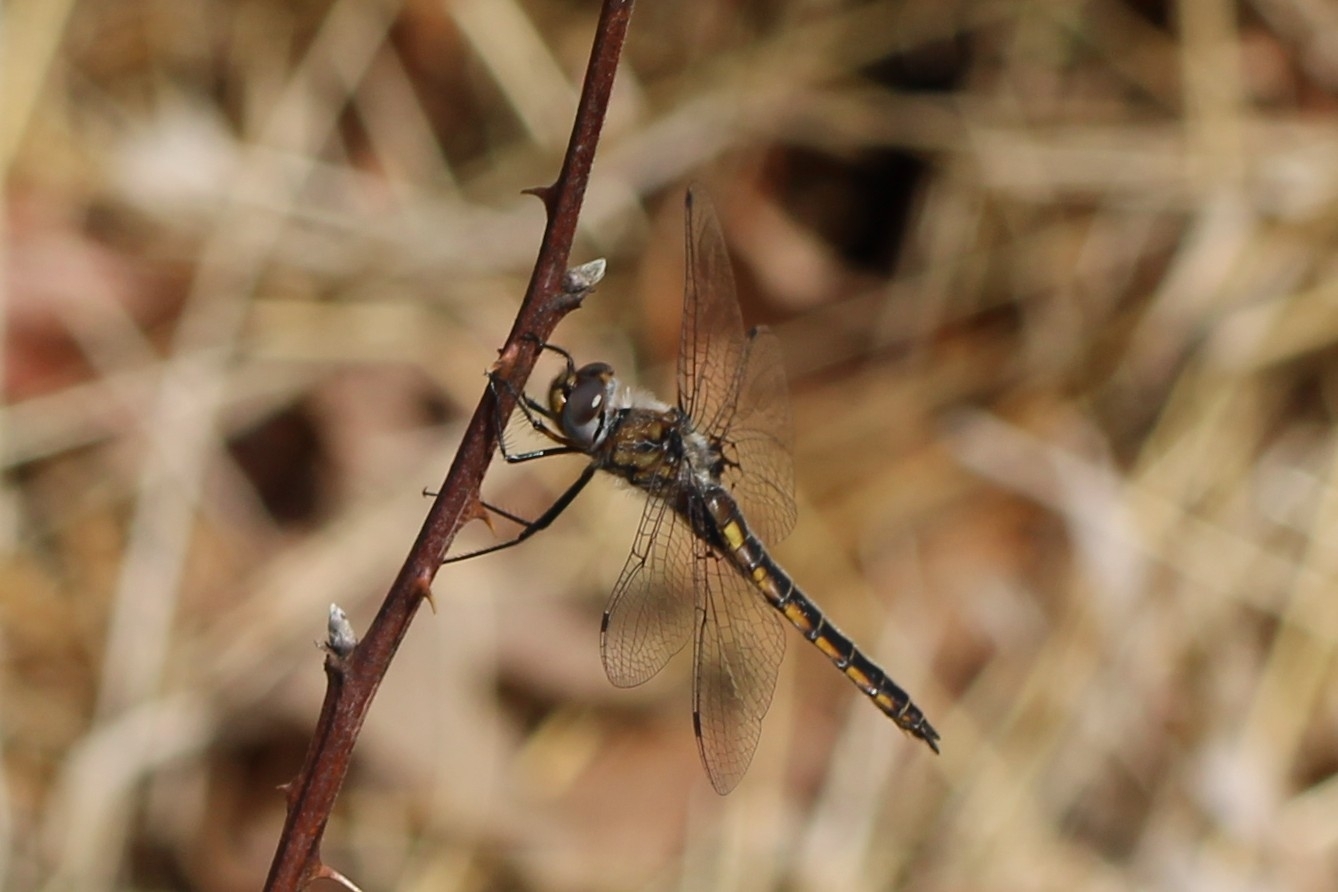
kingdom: Animalia
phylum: Arthropoda
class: Insecta
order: Odonata
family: Corduliidae
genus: Epitheca
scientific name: Epitheca cynosura
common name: Common baskettail
